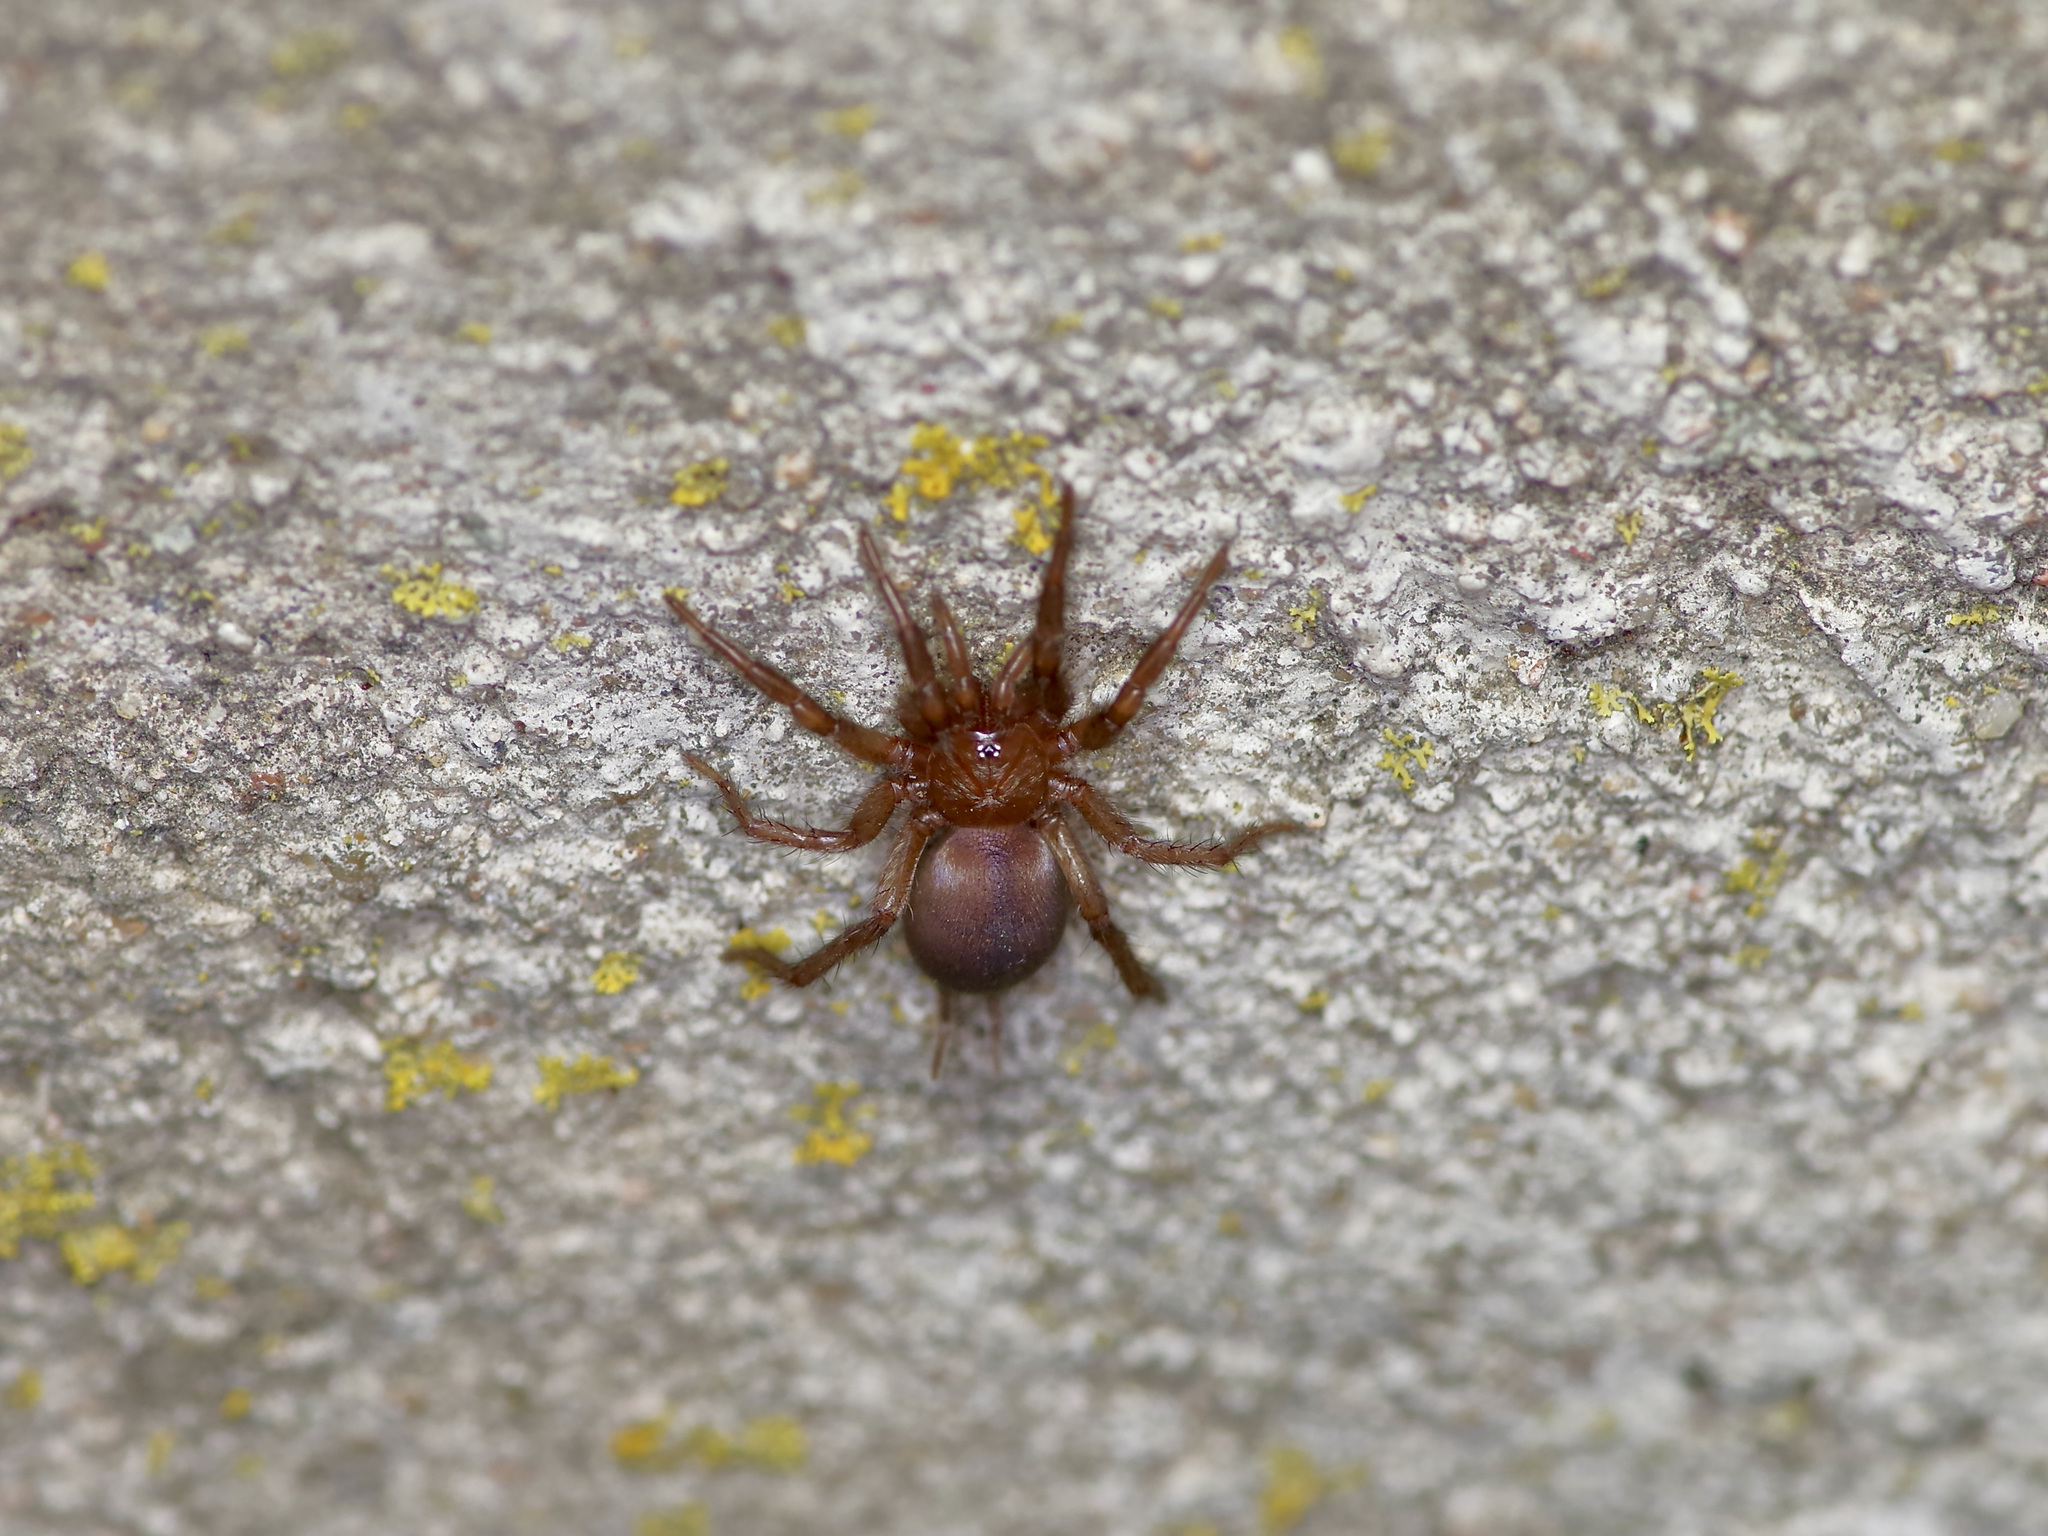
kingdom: Animalia
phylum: Arthropoda
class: Arachnida
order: Araneae
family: Euagridae
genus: Euagrus
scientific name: Euagrus chisoseus
